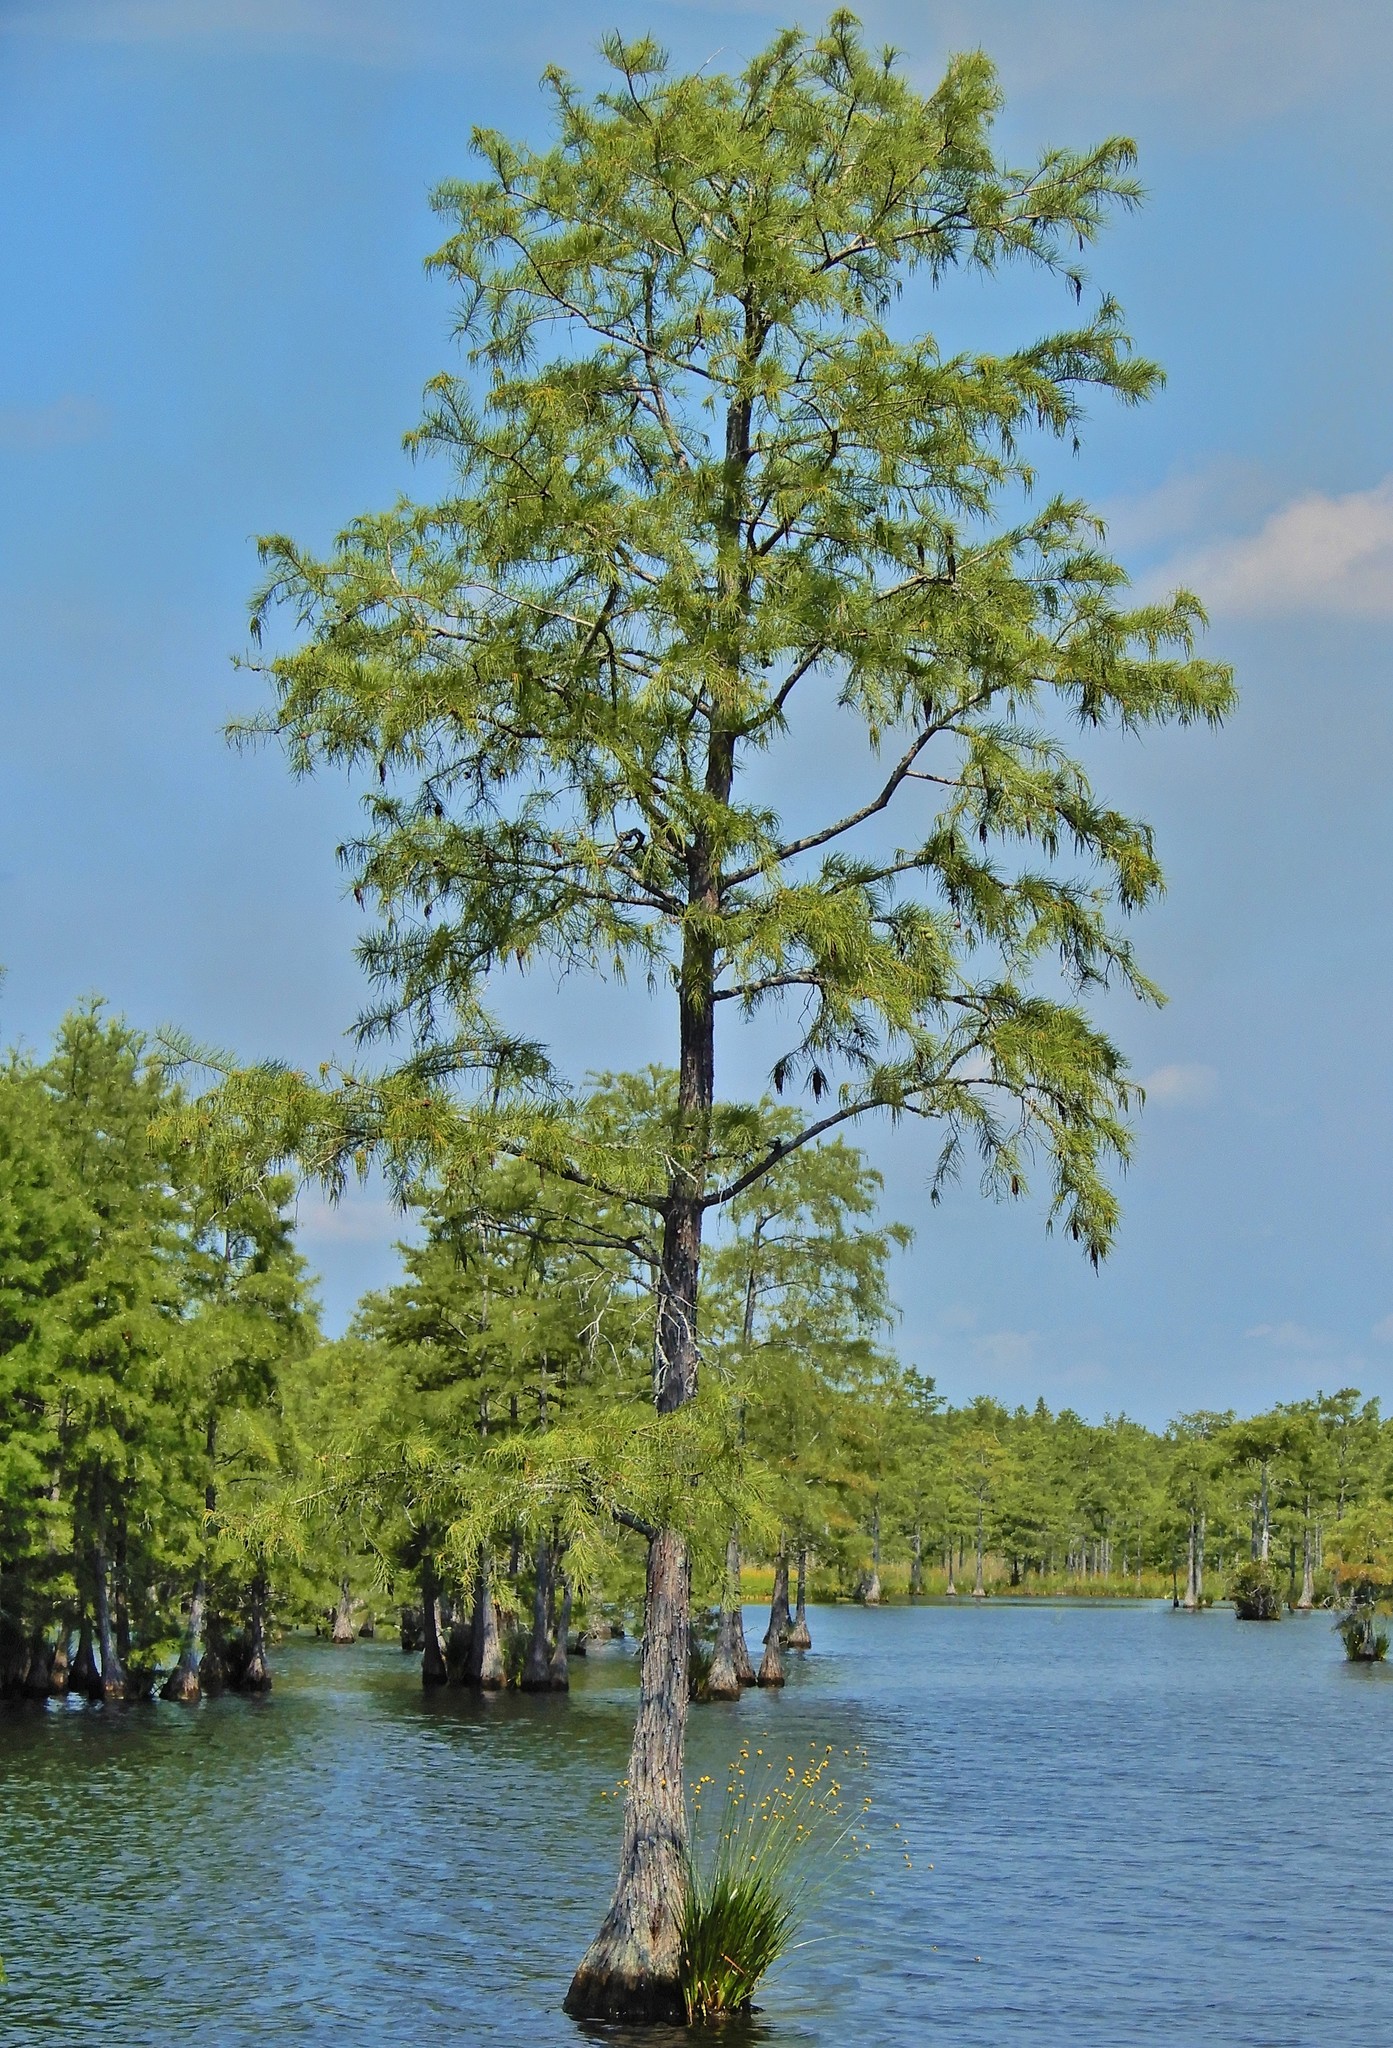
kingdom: Plantae
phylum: Tracheophyta
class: Pinopsida
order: Pinales
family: Cupressaceae
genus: Taxodium
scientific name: Taxodium distichum
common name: Bald cypress
